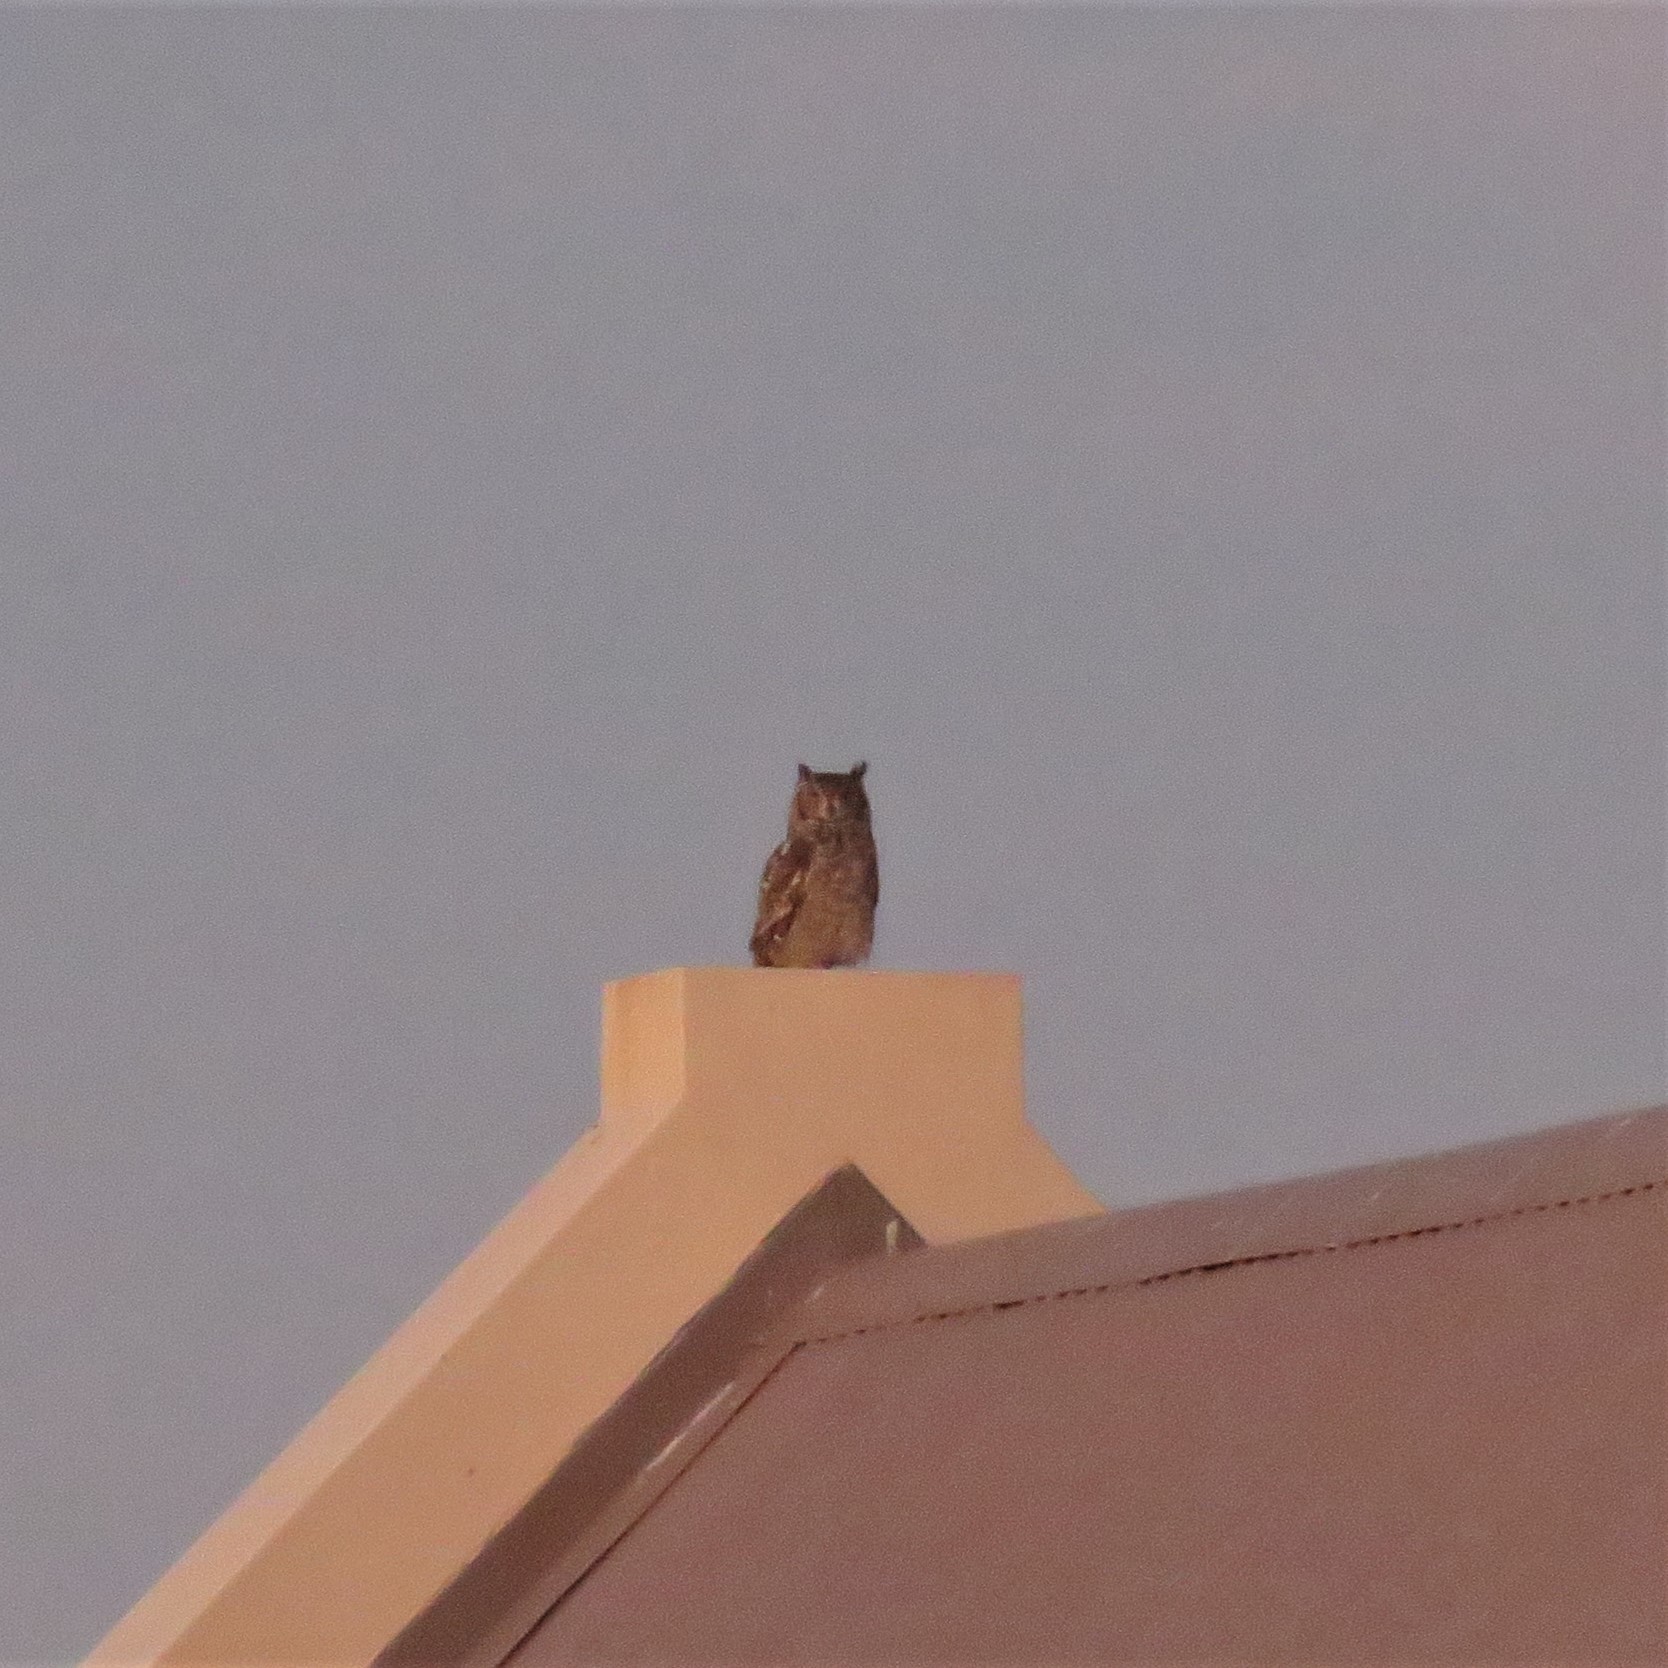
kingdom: Animalia
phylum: Chordata
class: Aves
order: Strigiformes
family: Strigidae
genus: Bubo
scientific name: Bubo africanus
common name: Spotted eagle-owl
